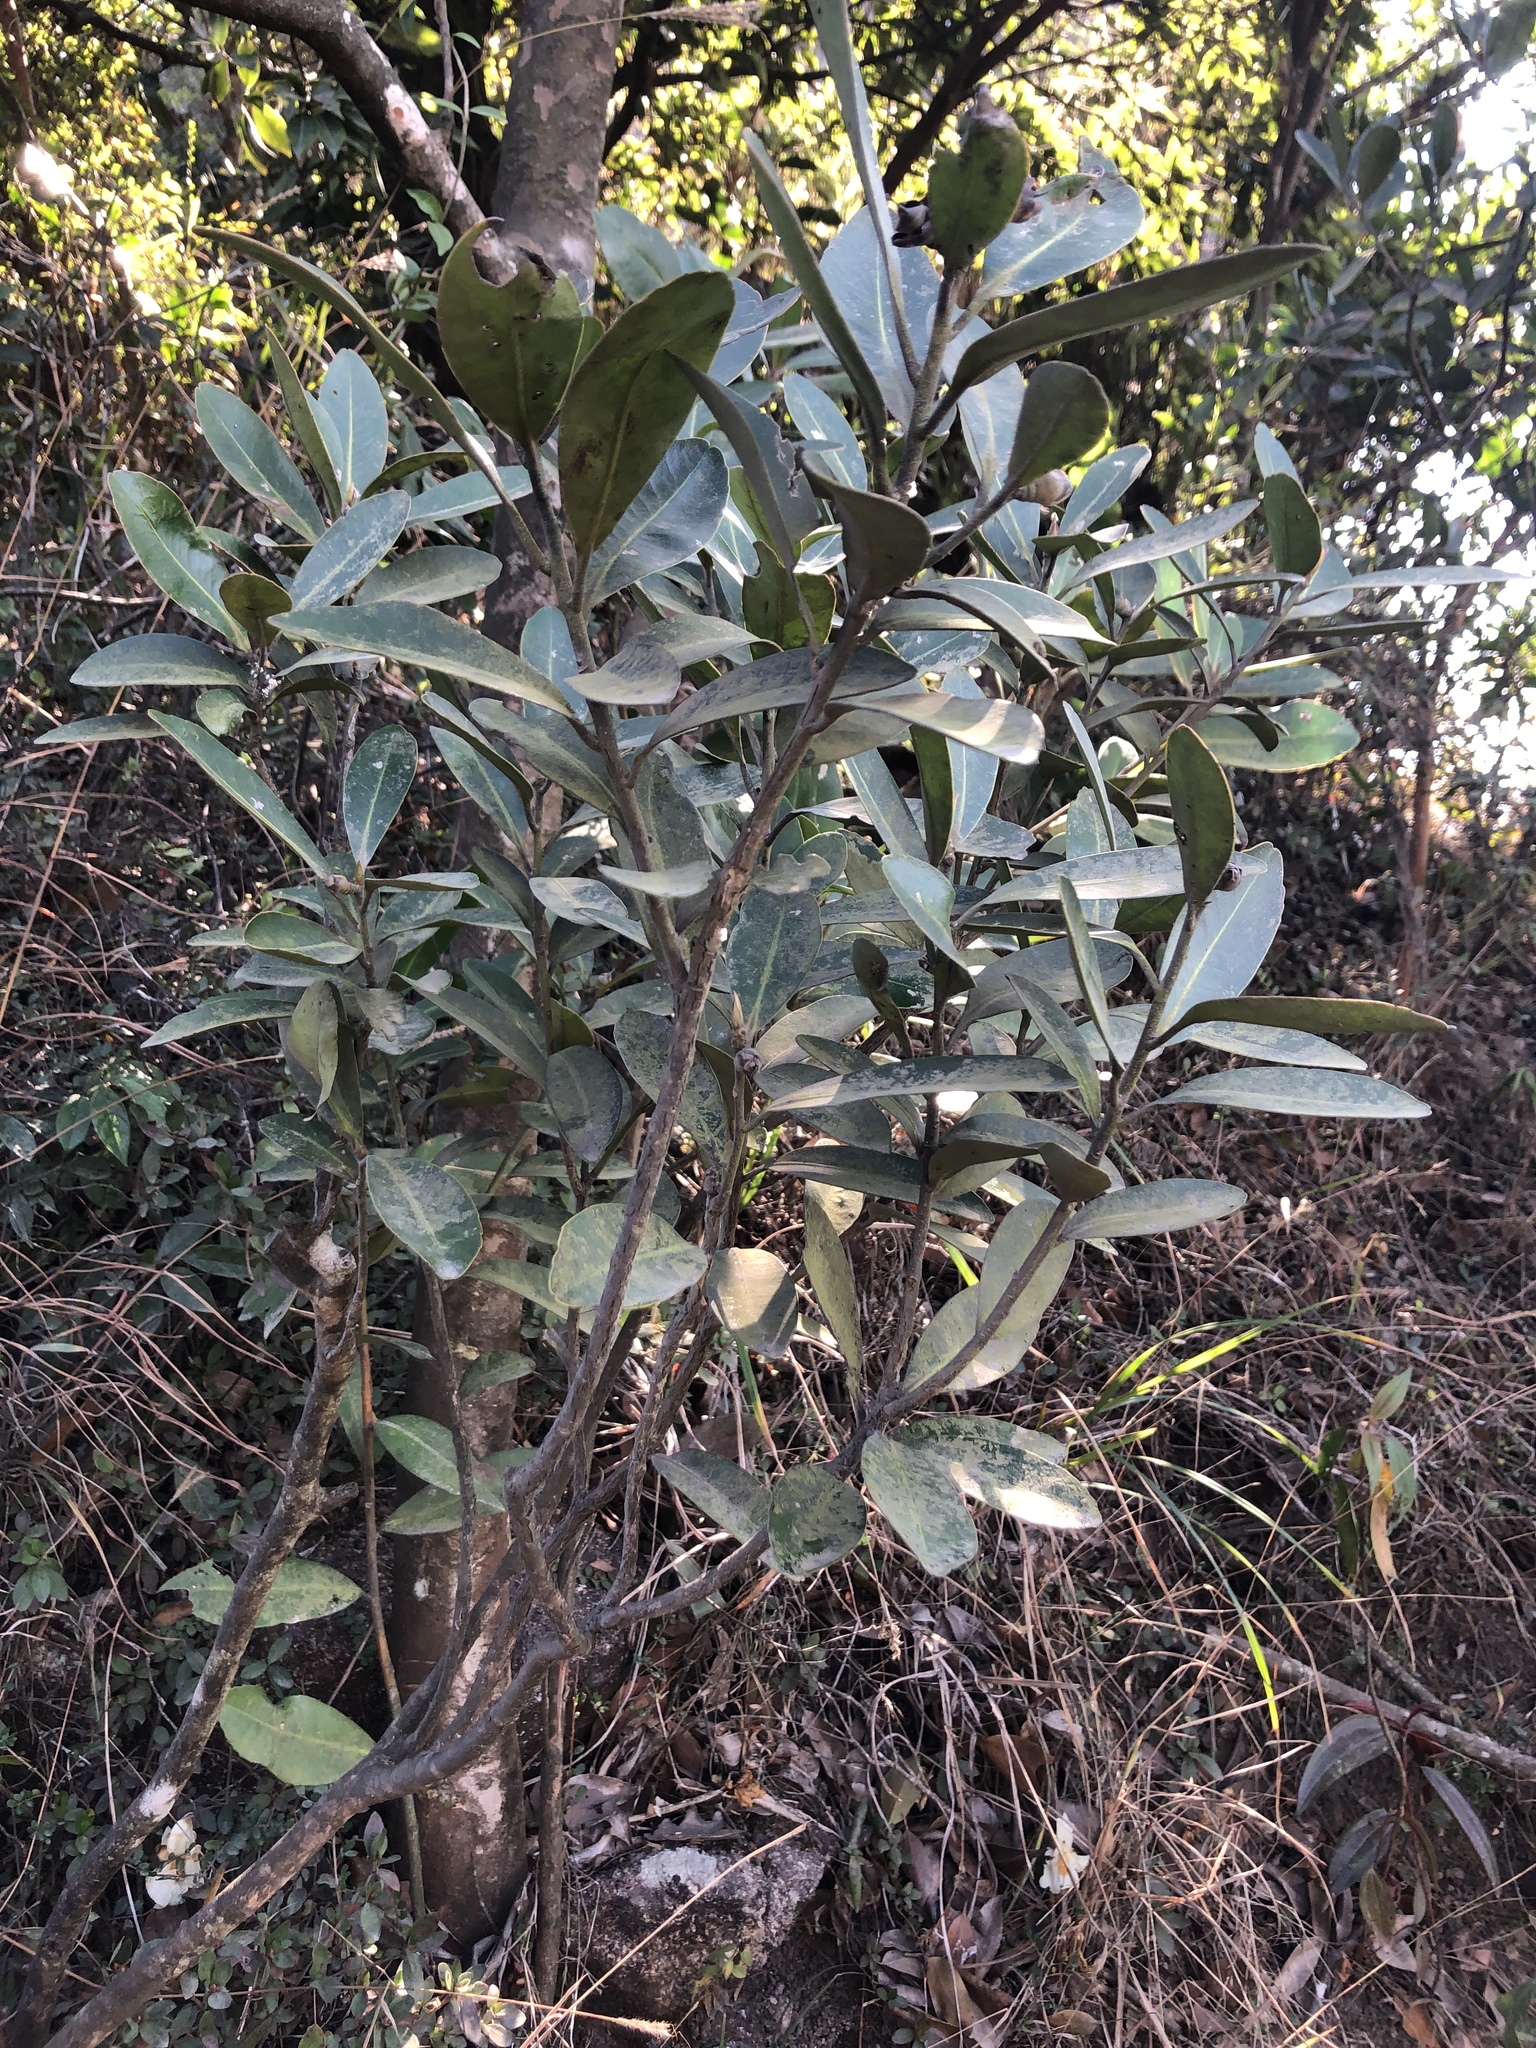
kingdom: Plantae
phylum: Tracheophyta
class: Magnoliopsida
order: Ericales
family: Theaceae
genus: Polyspora
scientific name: Polyspora axillaris
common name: Fried egg tree
